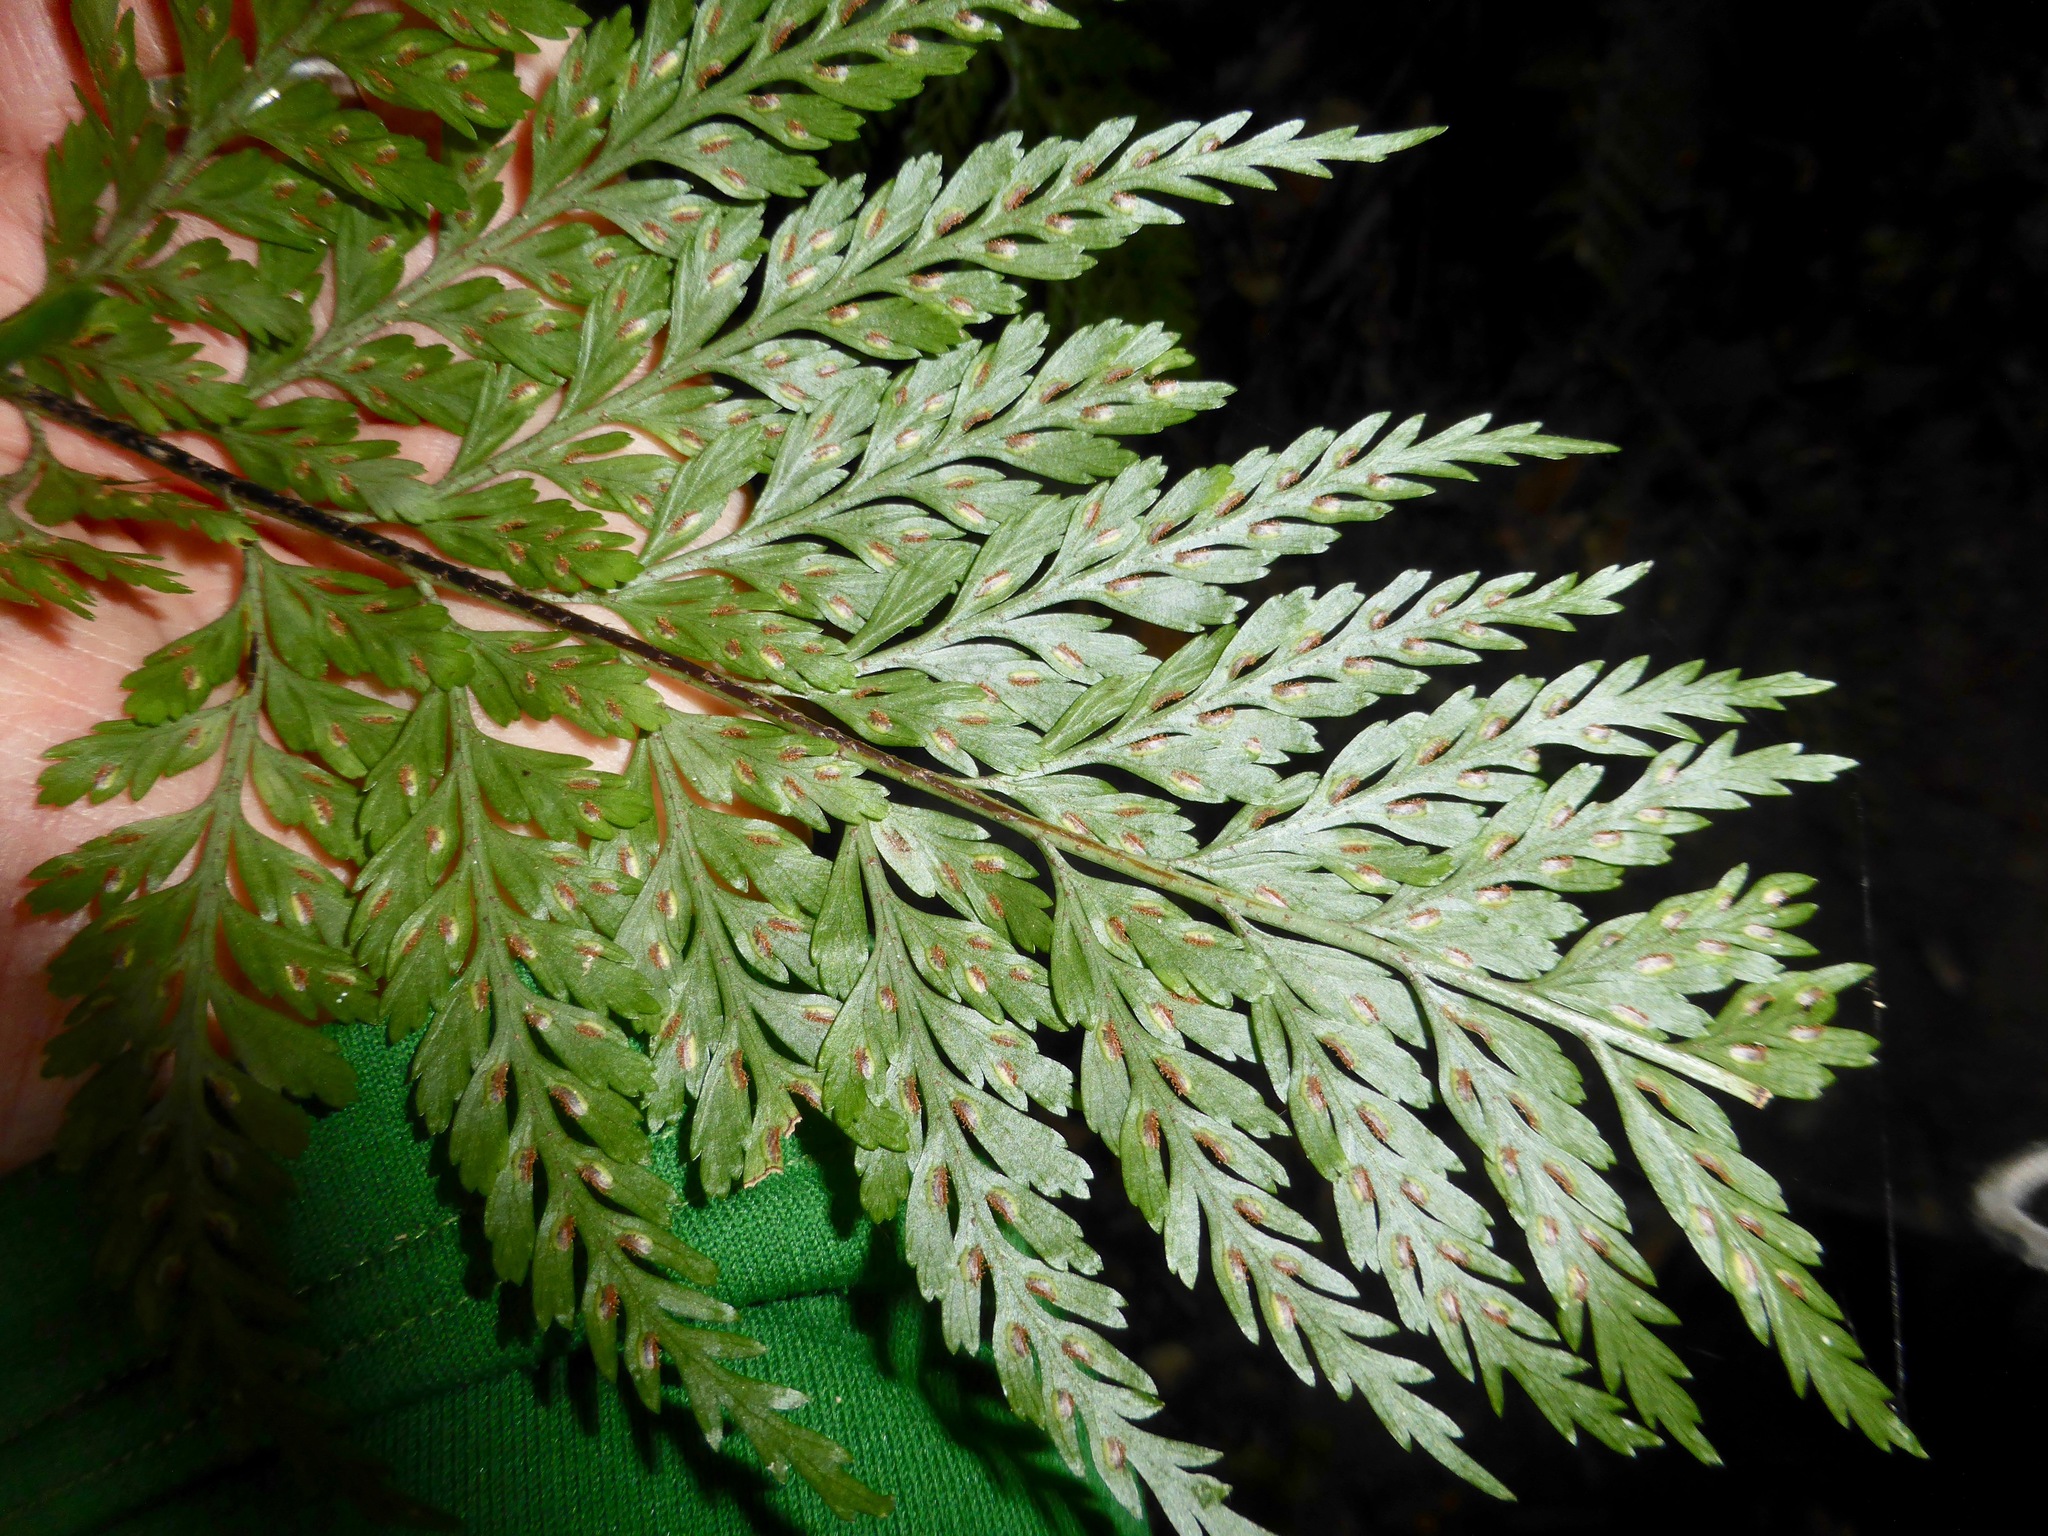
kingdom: Plantae
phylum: Tracheophyta
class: Polypodiopsida
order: Polypodiales
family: Aspleniaceae
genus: Asplenium
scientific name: Asplenium
